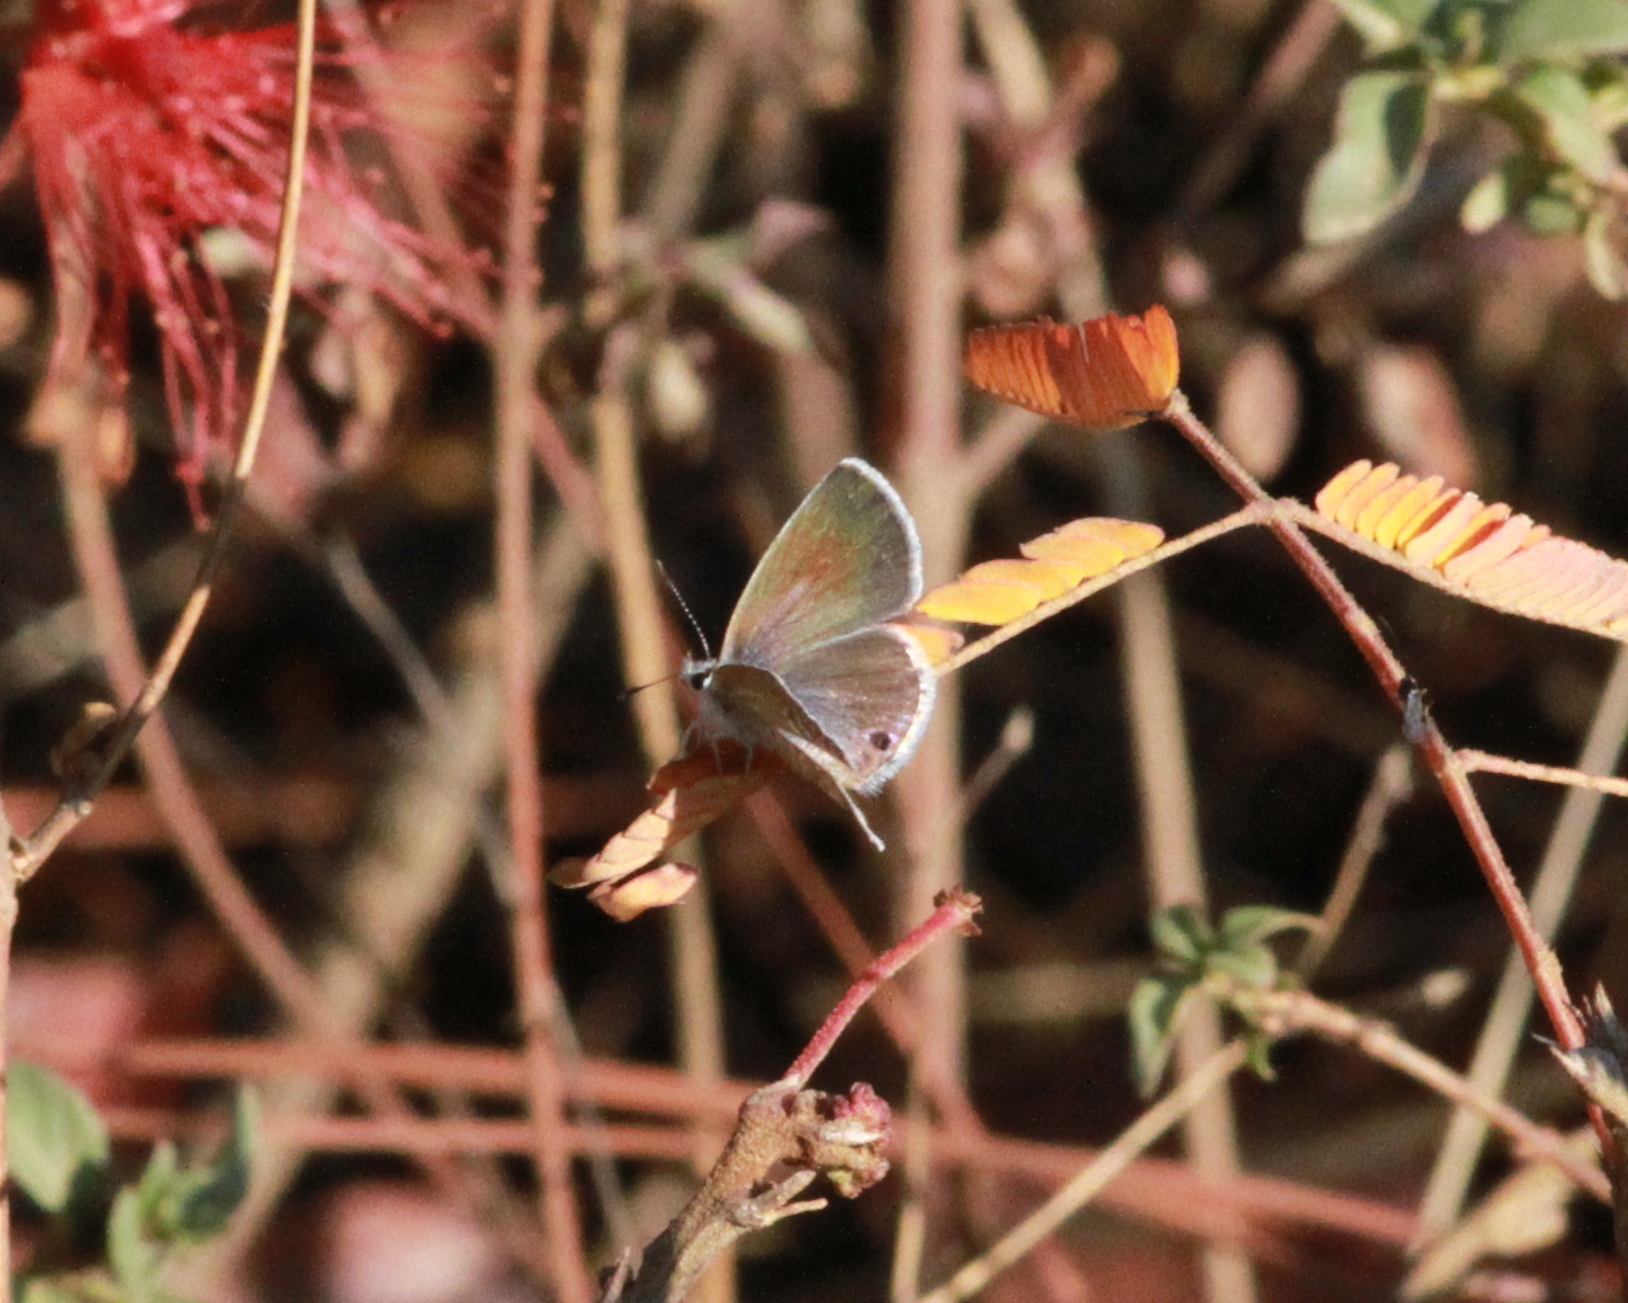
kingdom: Animalia
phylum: Arthropoda
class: Insecta
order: Lepidoptera
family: Lycaenidae
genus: Echinargus
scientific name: Echinargus isola
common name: Reakirt's blue
